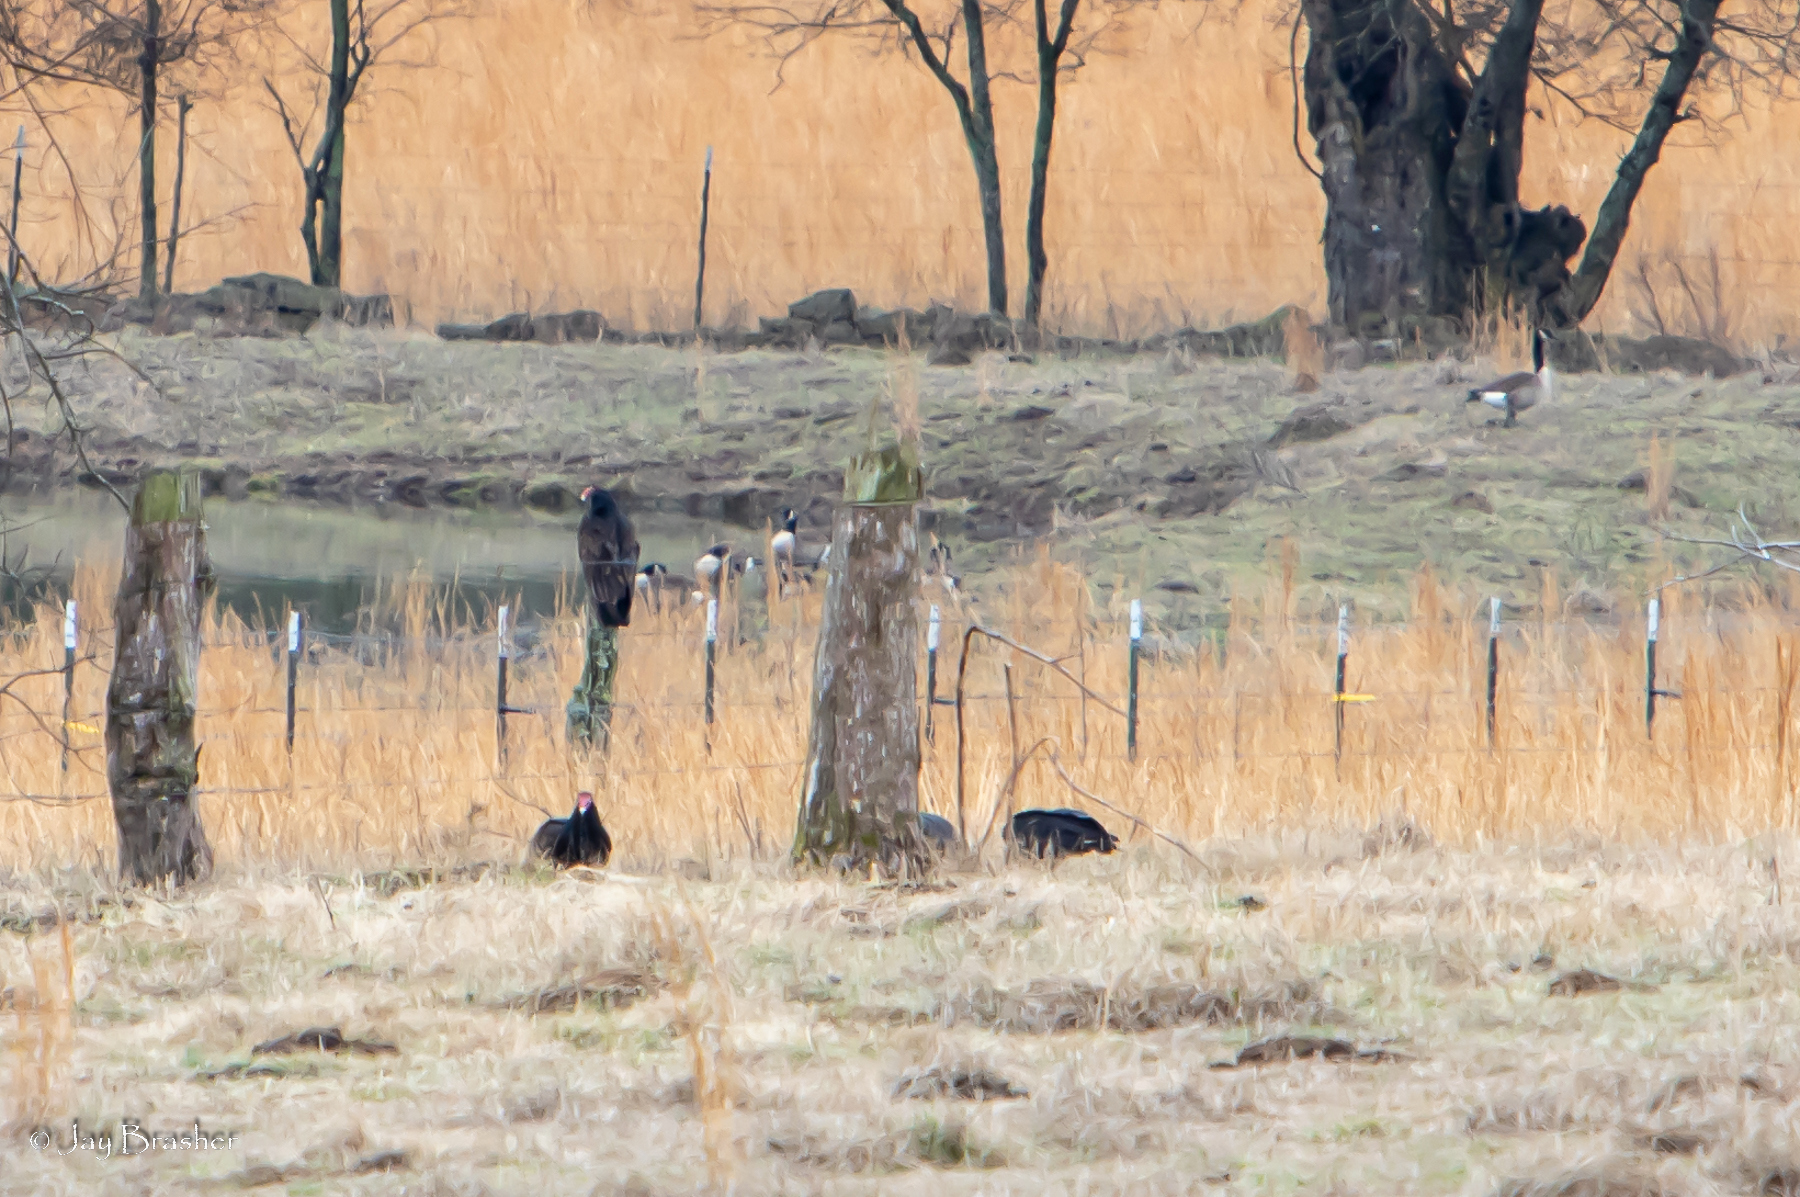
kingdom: Animalia
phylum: Chordata
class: Aves
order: Accipitriformes
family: Cathartidae
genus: Cathartes
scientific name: Cathartes aura
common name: Turkey vulture
